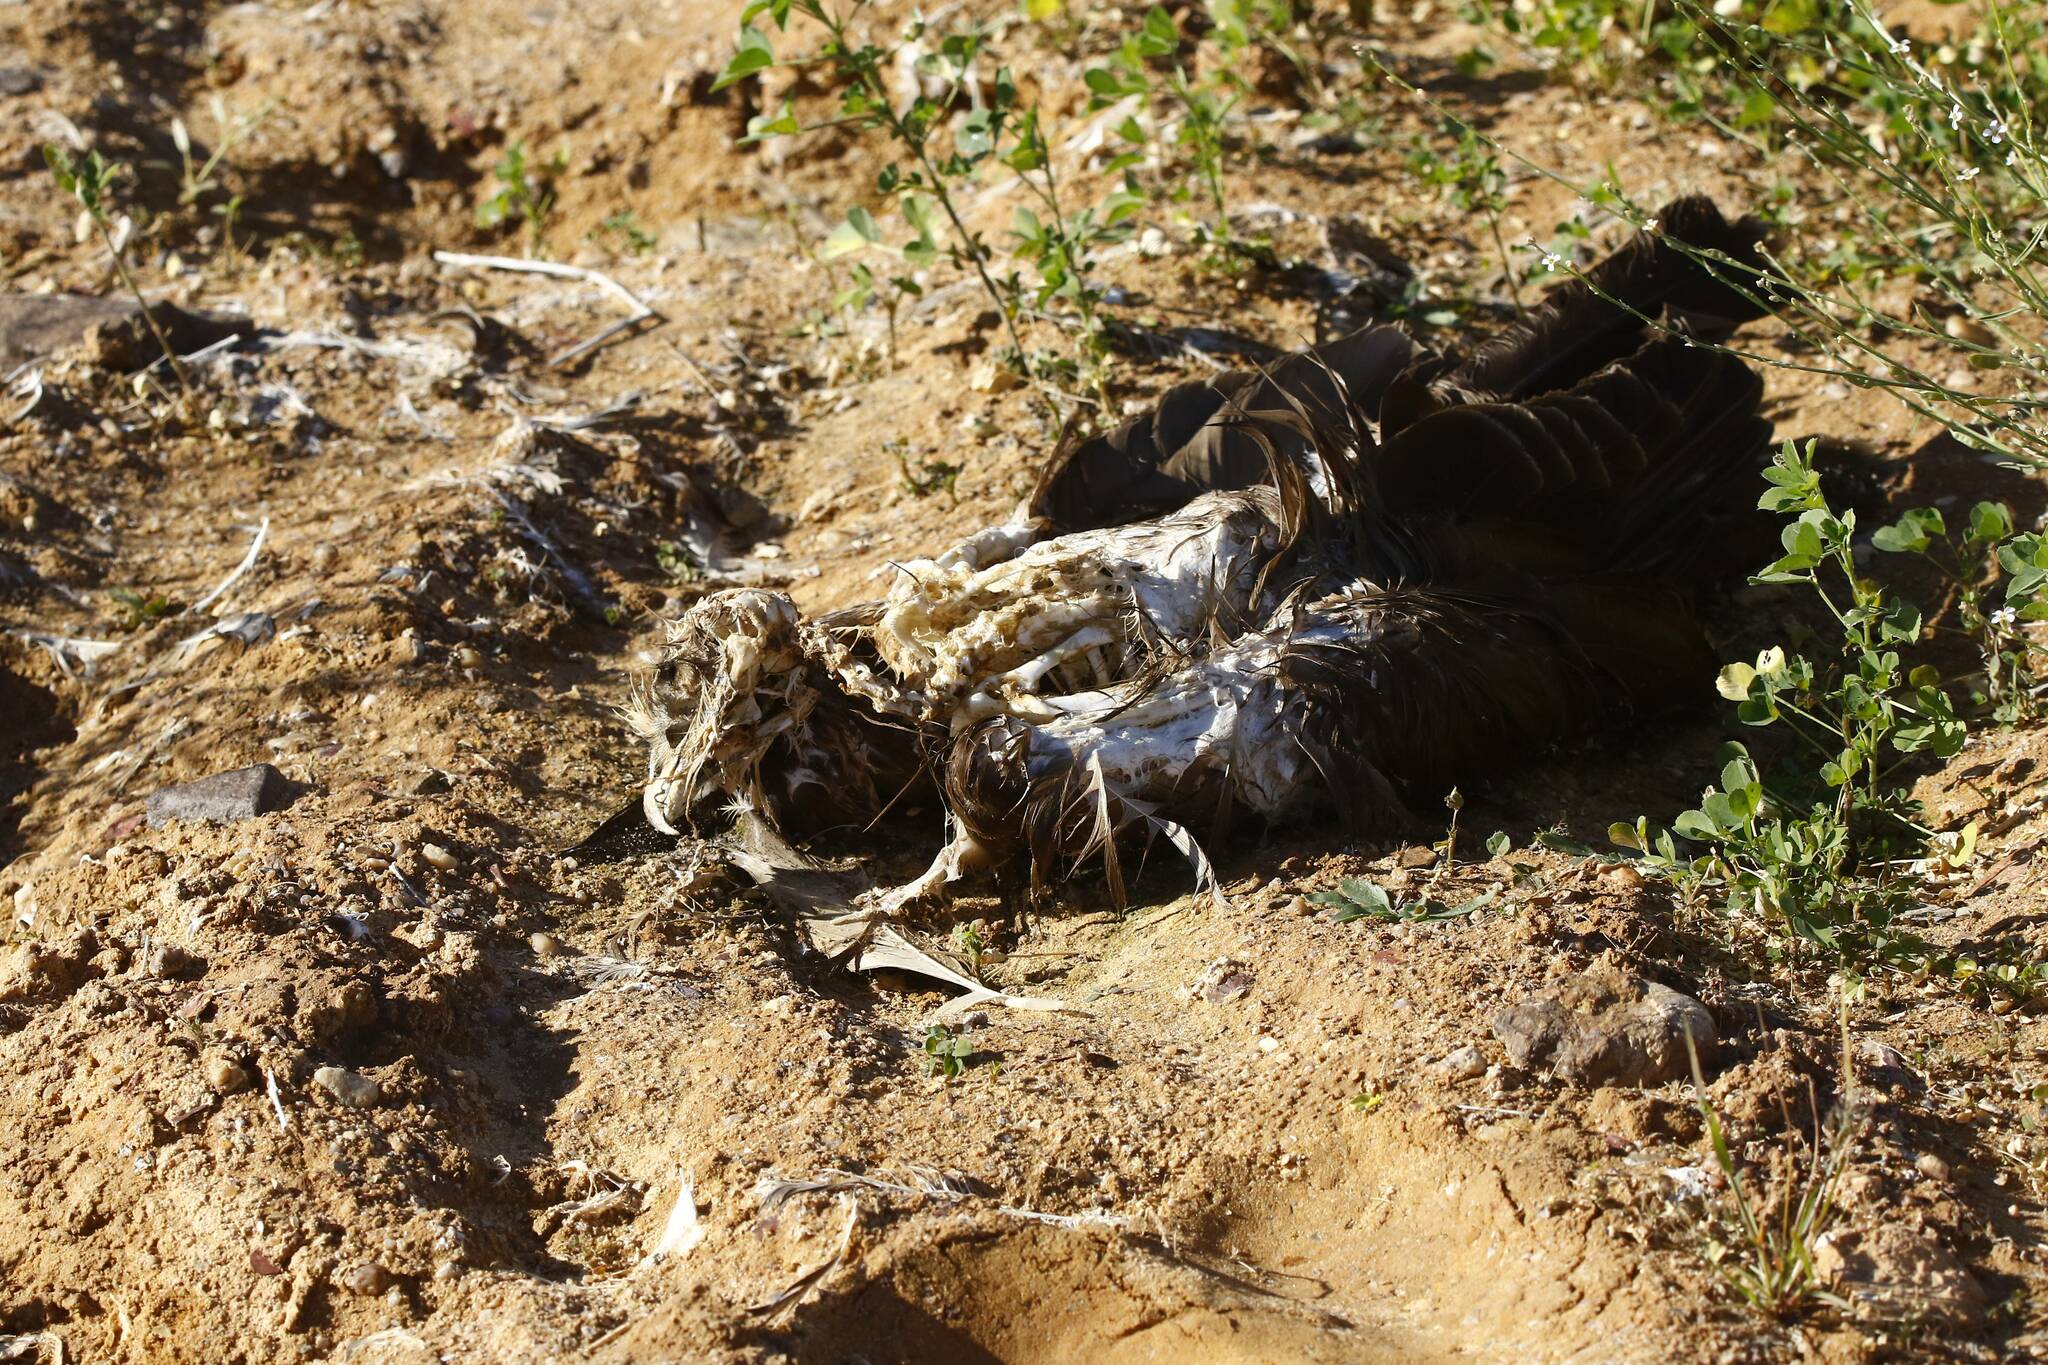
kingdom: Animalia
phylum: Chordata
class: Aves
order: Accipitriformes
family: Accipitridae
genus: Circus
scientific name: Circus aeruginosus
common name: Western marsh harrier
